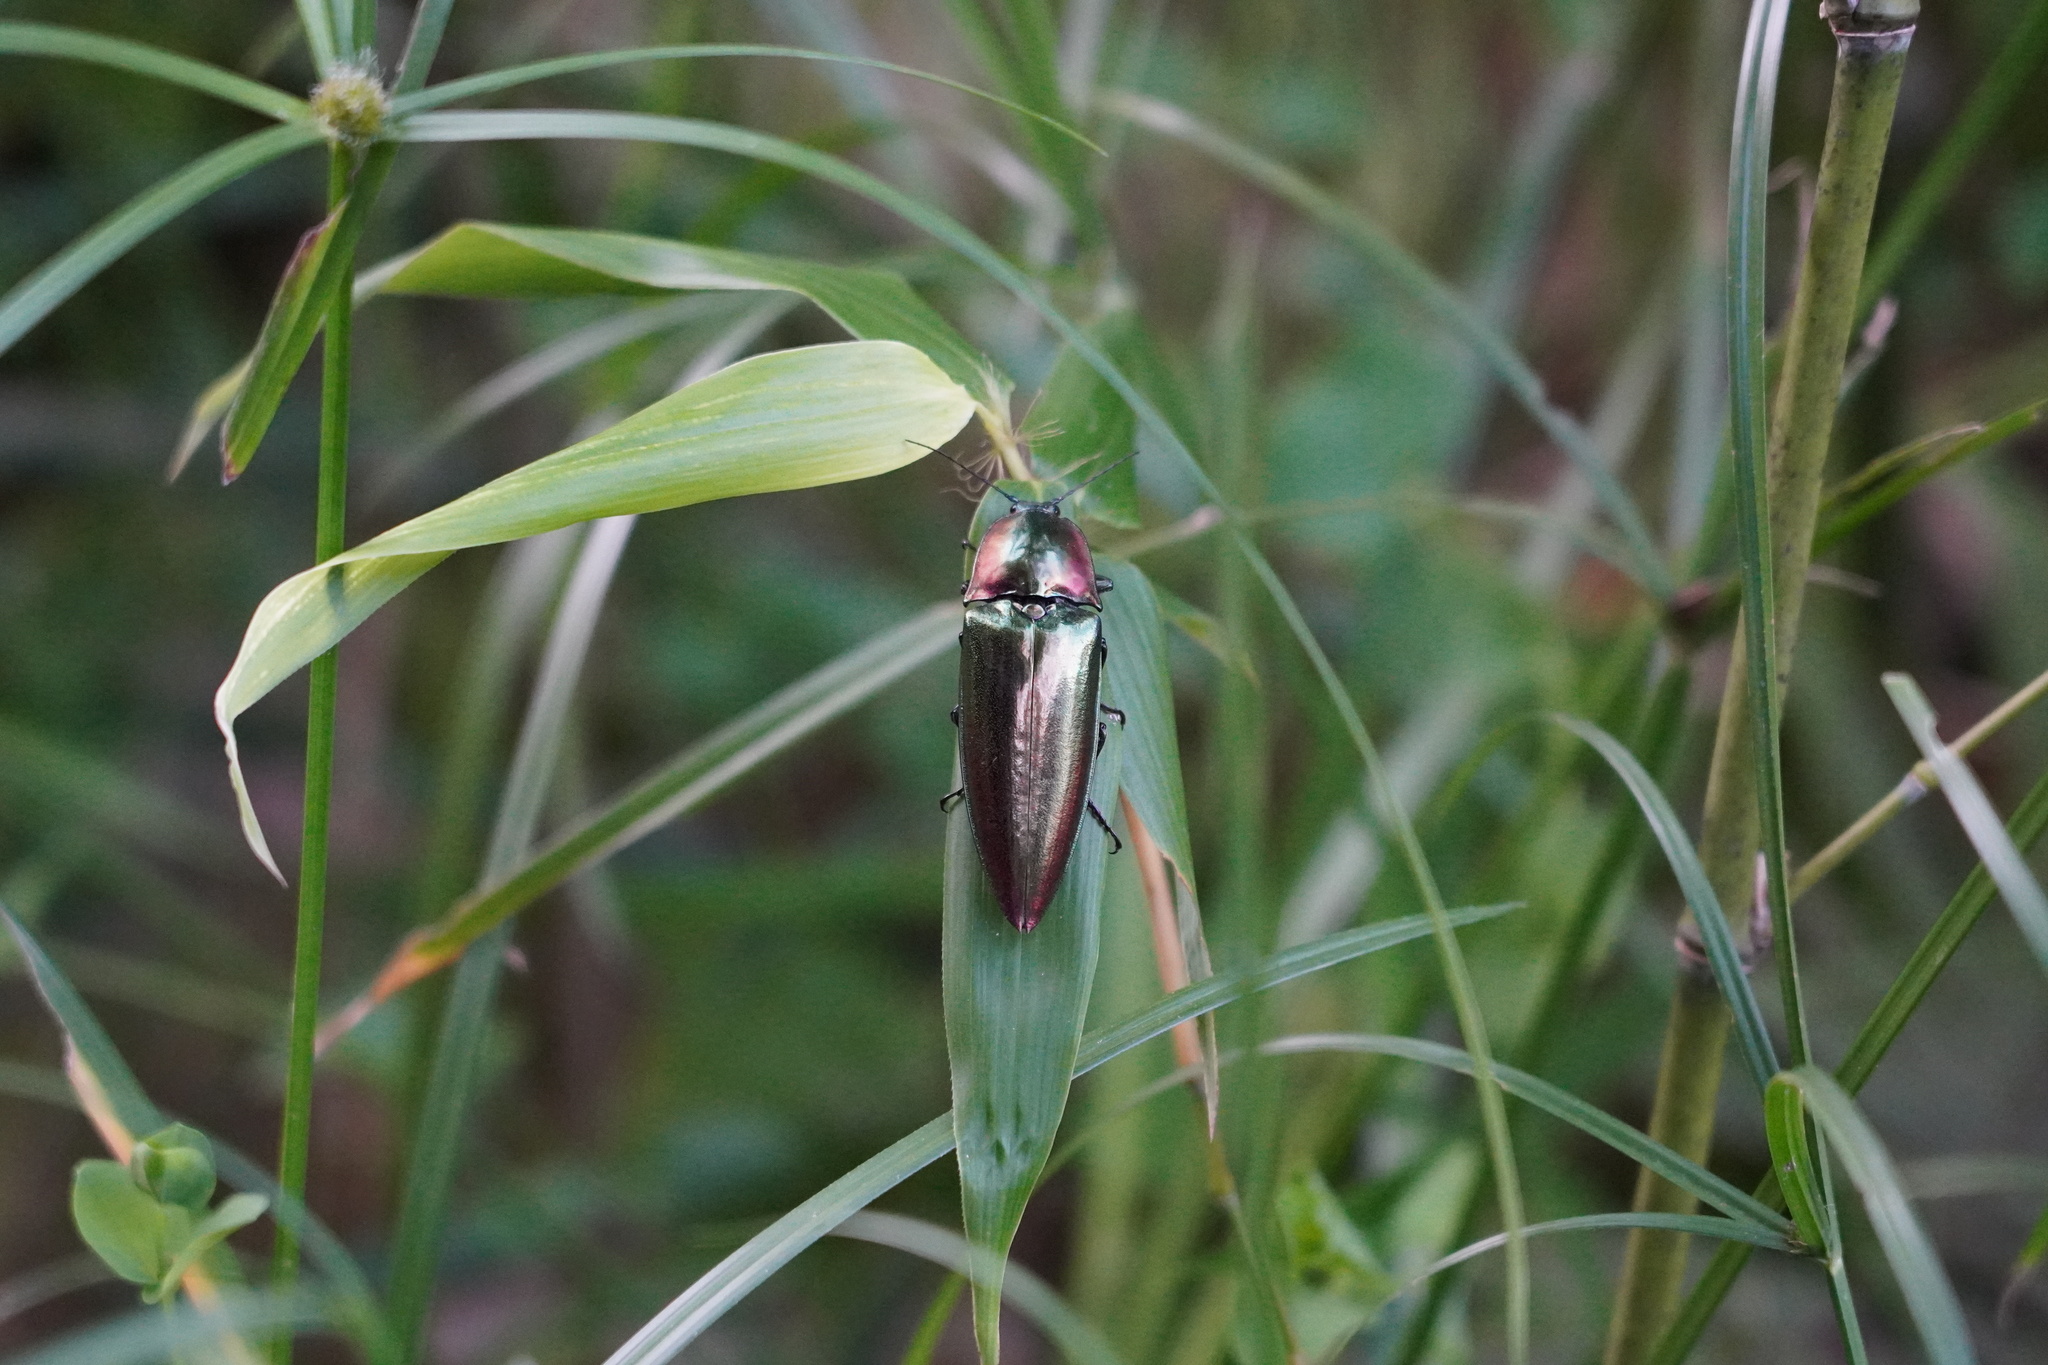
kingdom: Animalia
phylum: Arthropoda
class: Insecta
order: Coleoptera
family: Elateridae
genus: Campsosternus
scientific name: Campsosternus auratus
